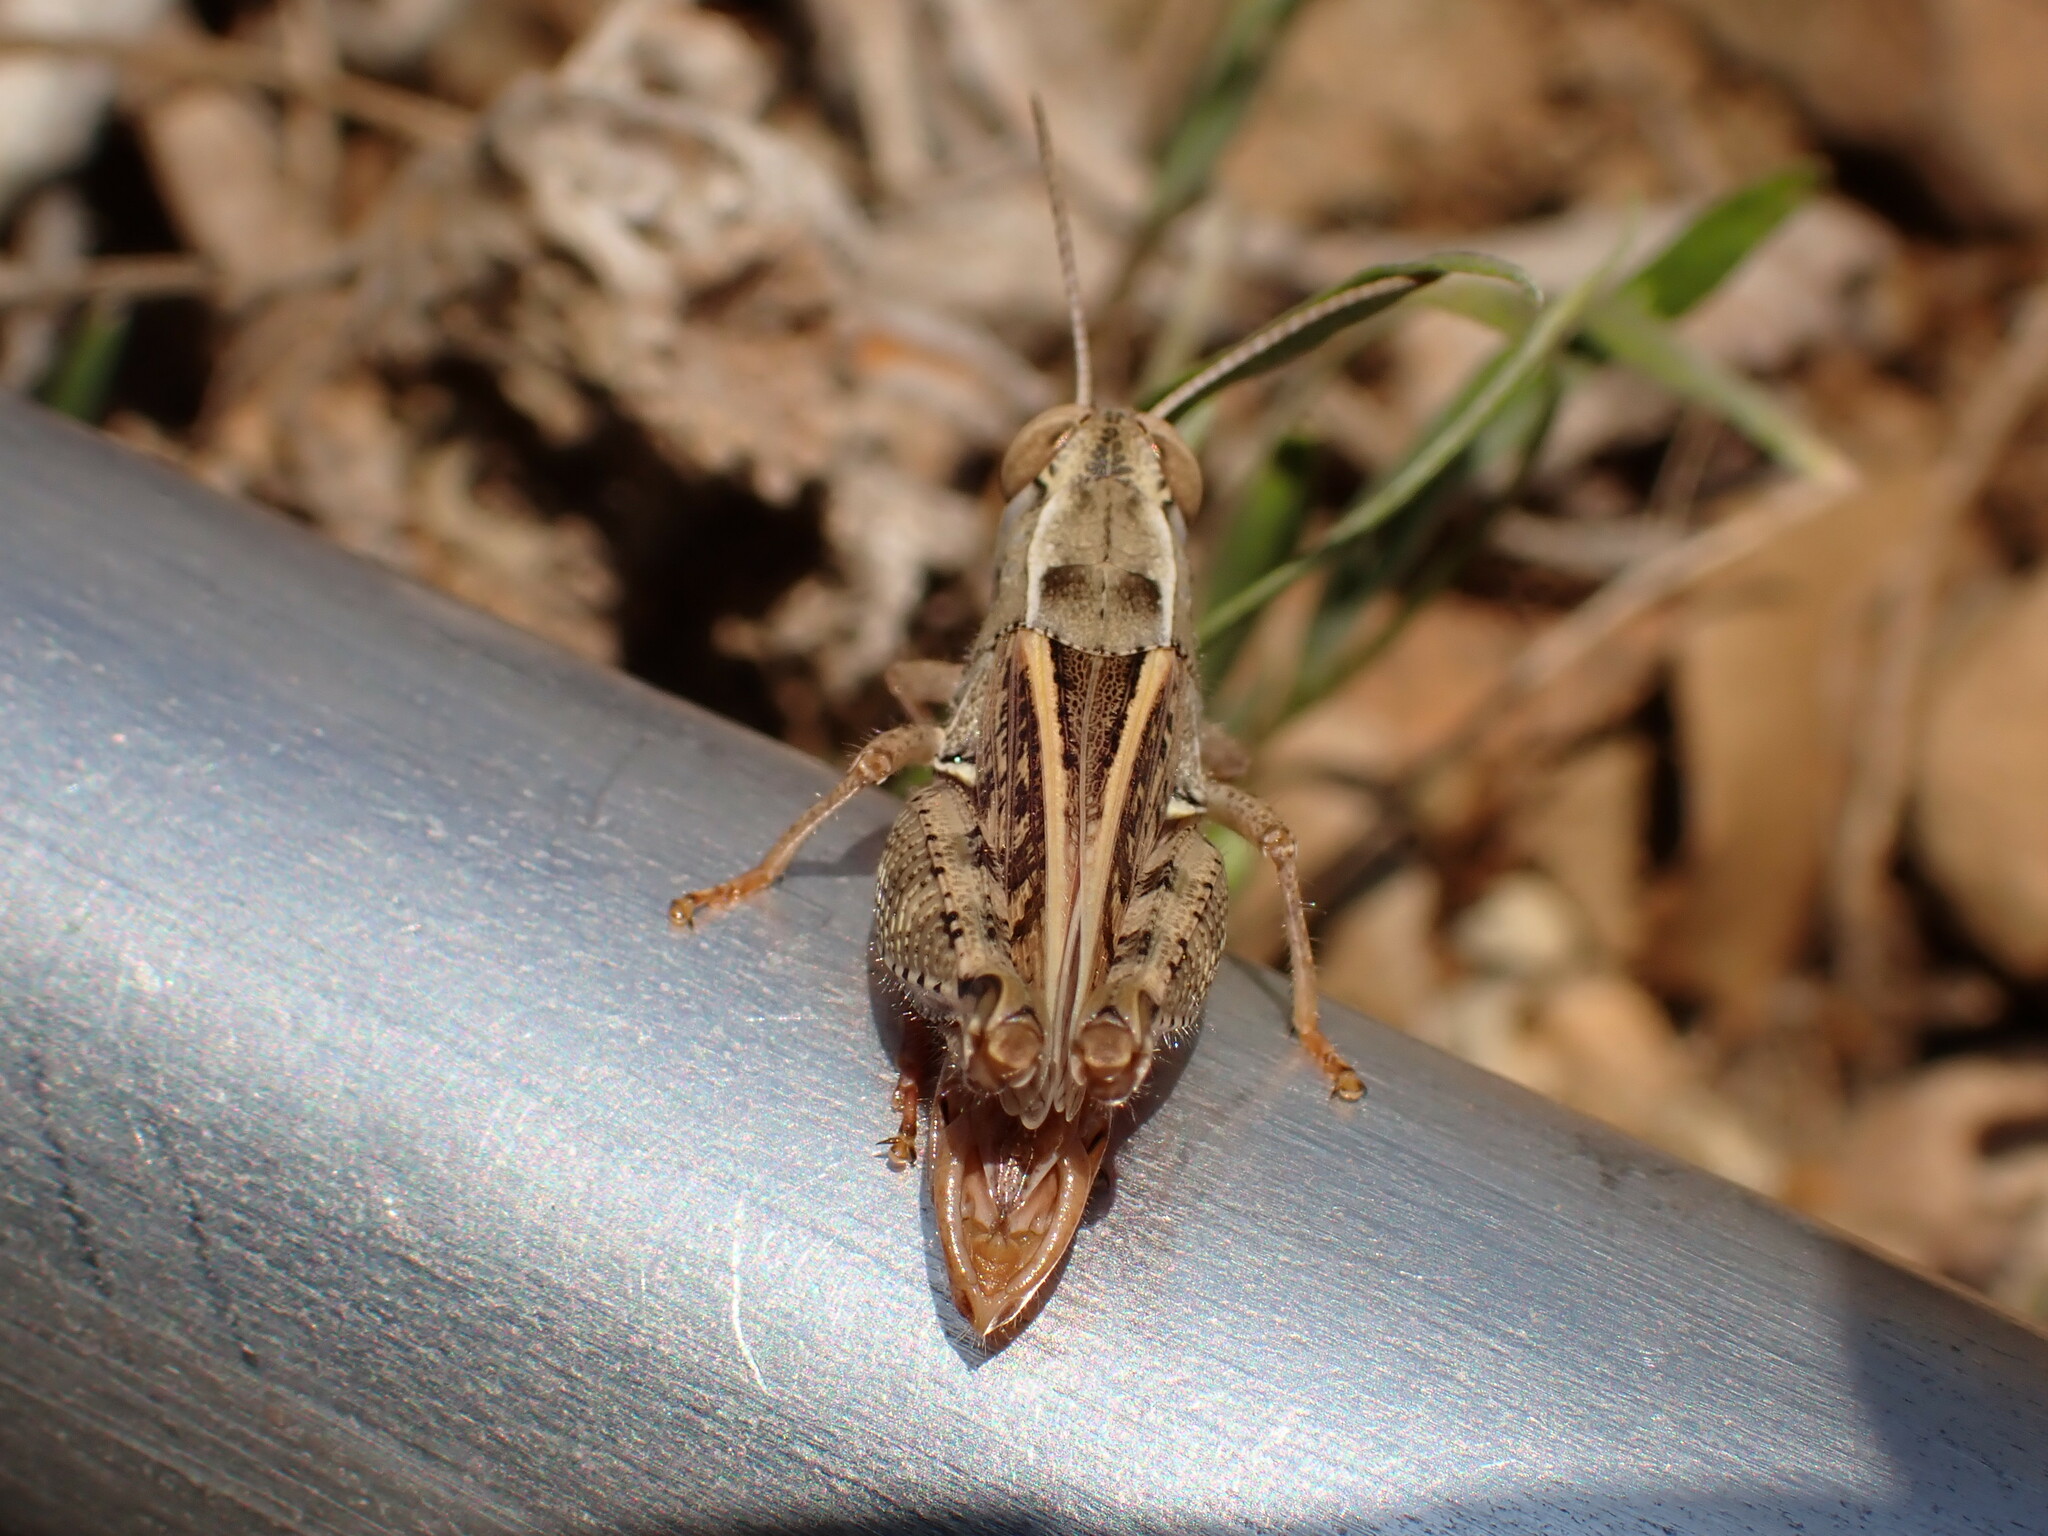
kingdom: Animalia
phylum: Arthropoda
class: Insecta
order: Orthoptera
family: Acrididae
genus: Calliptamus
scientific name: Calliptamus wattenwylianus
